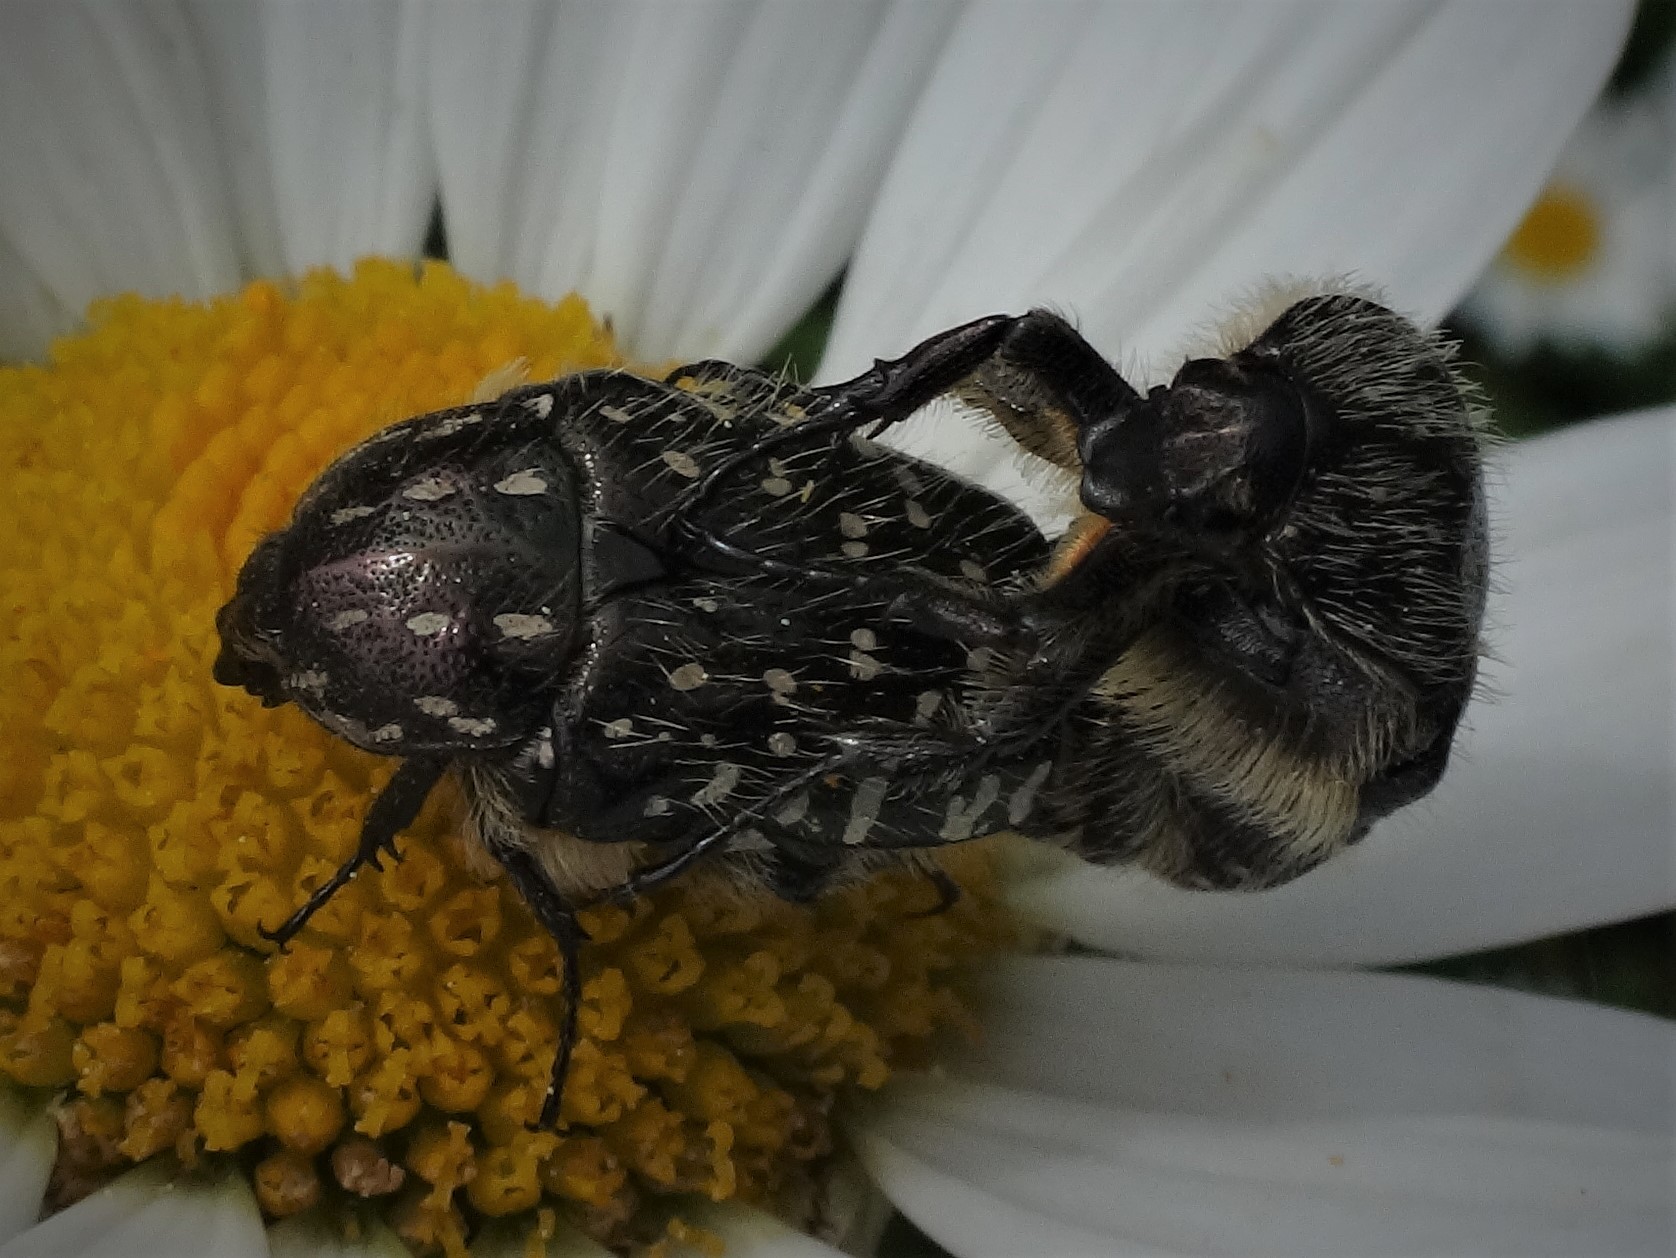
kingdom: Animalia
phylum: Arthropoda
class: Insecta
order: Coleoptera
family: Scarabaeidae
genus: Oxythyrea
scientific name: Oxythyrea funesta
